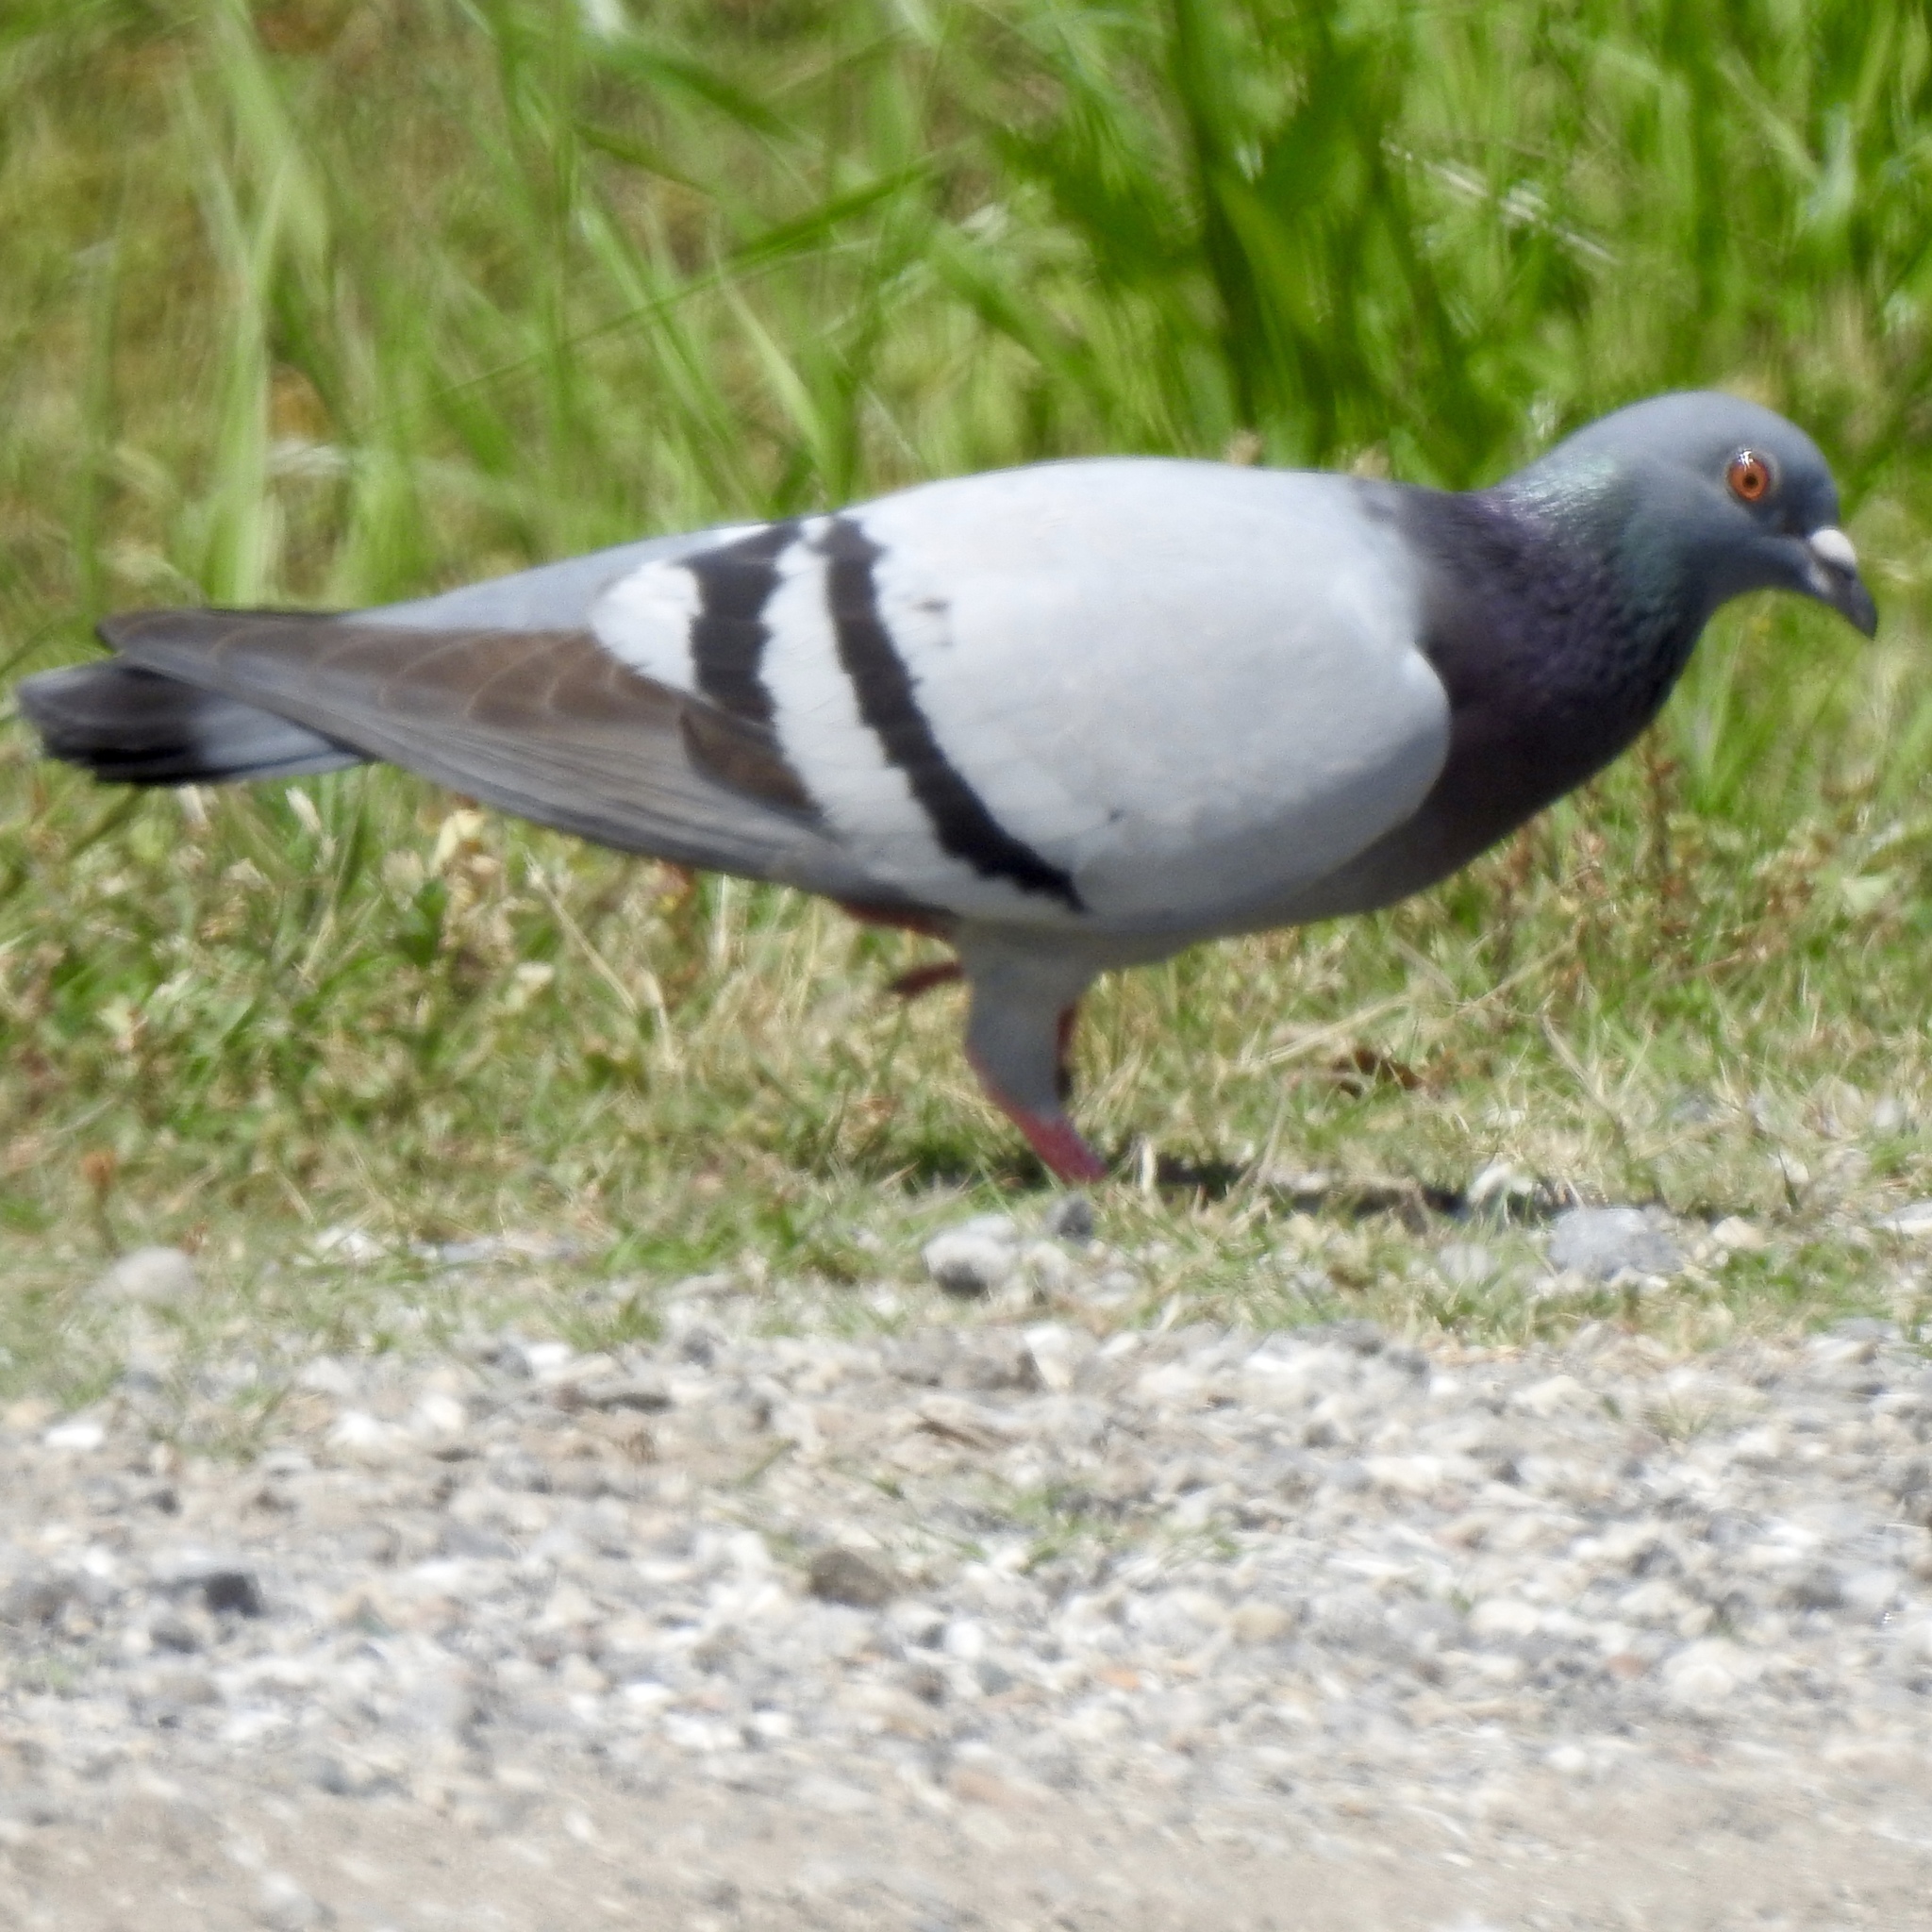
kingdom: Animalia
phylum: Chordata
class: Aves
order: Columbiformes
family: Columbidae
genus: Columba
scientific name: Columba livia
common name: Rock pigeon
